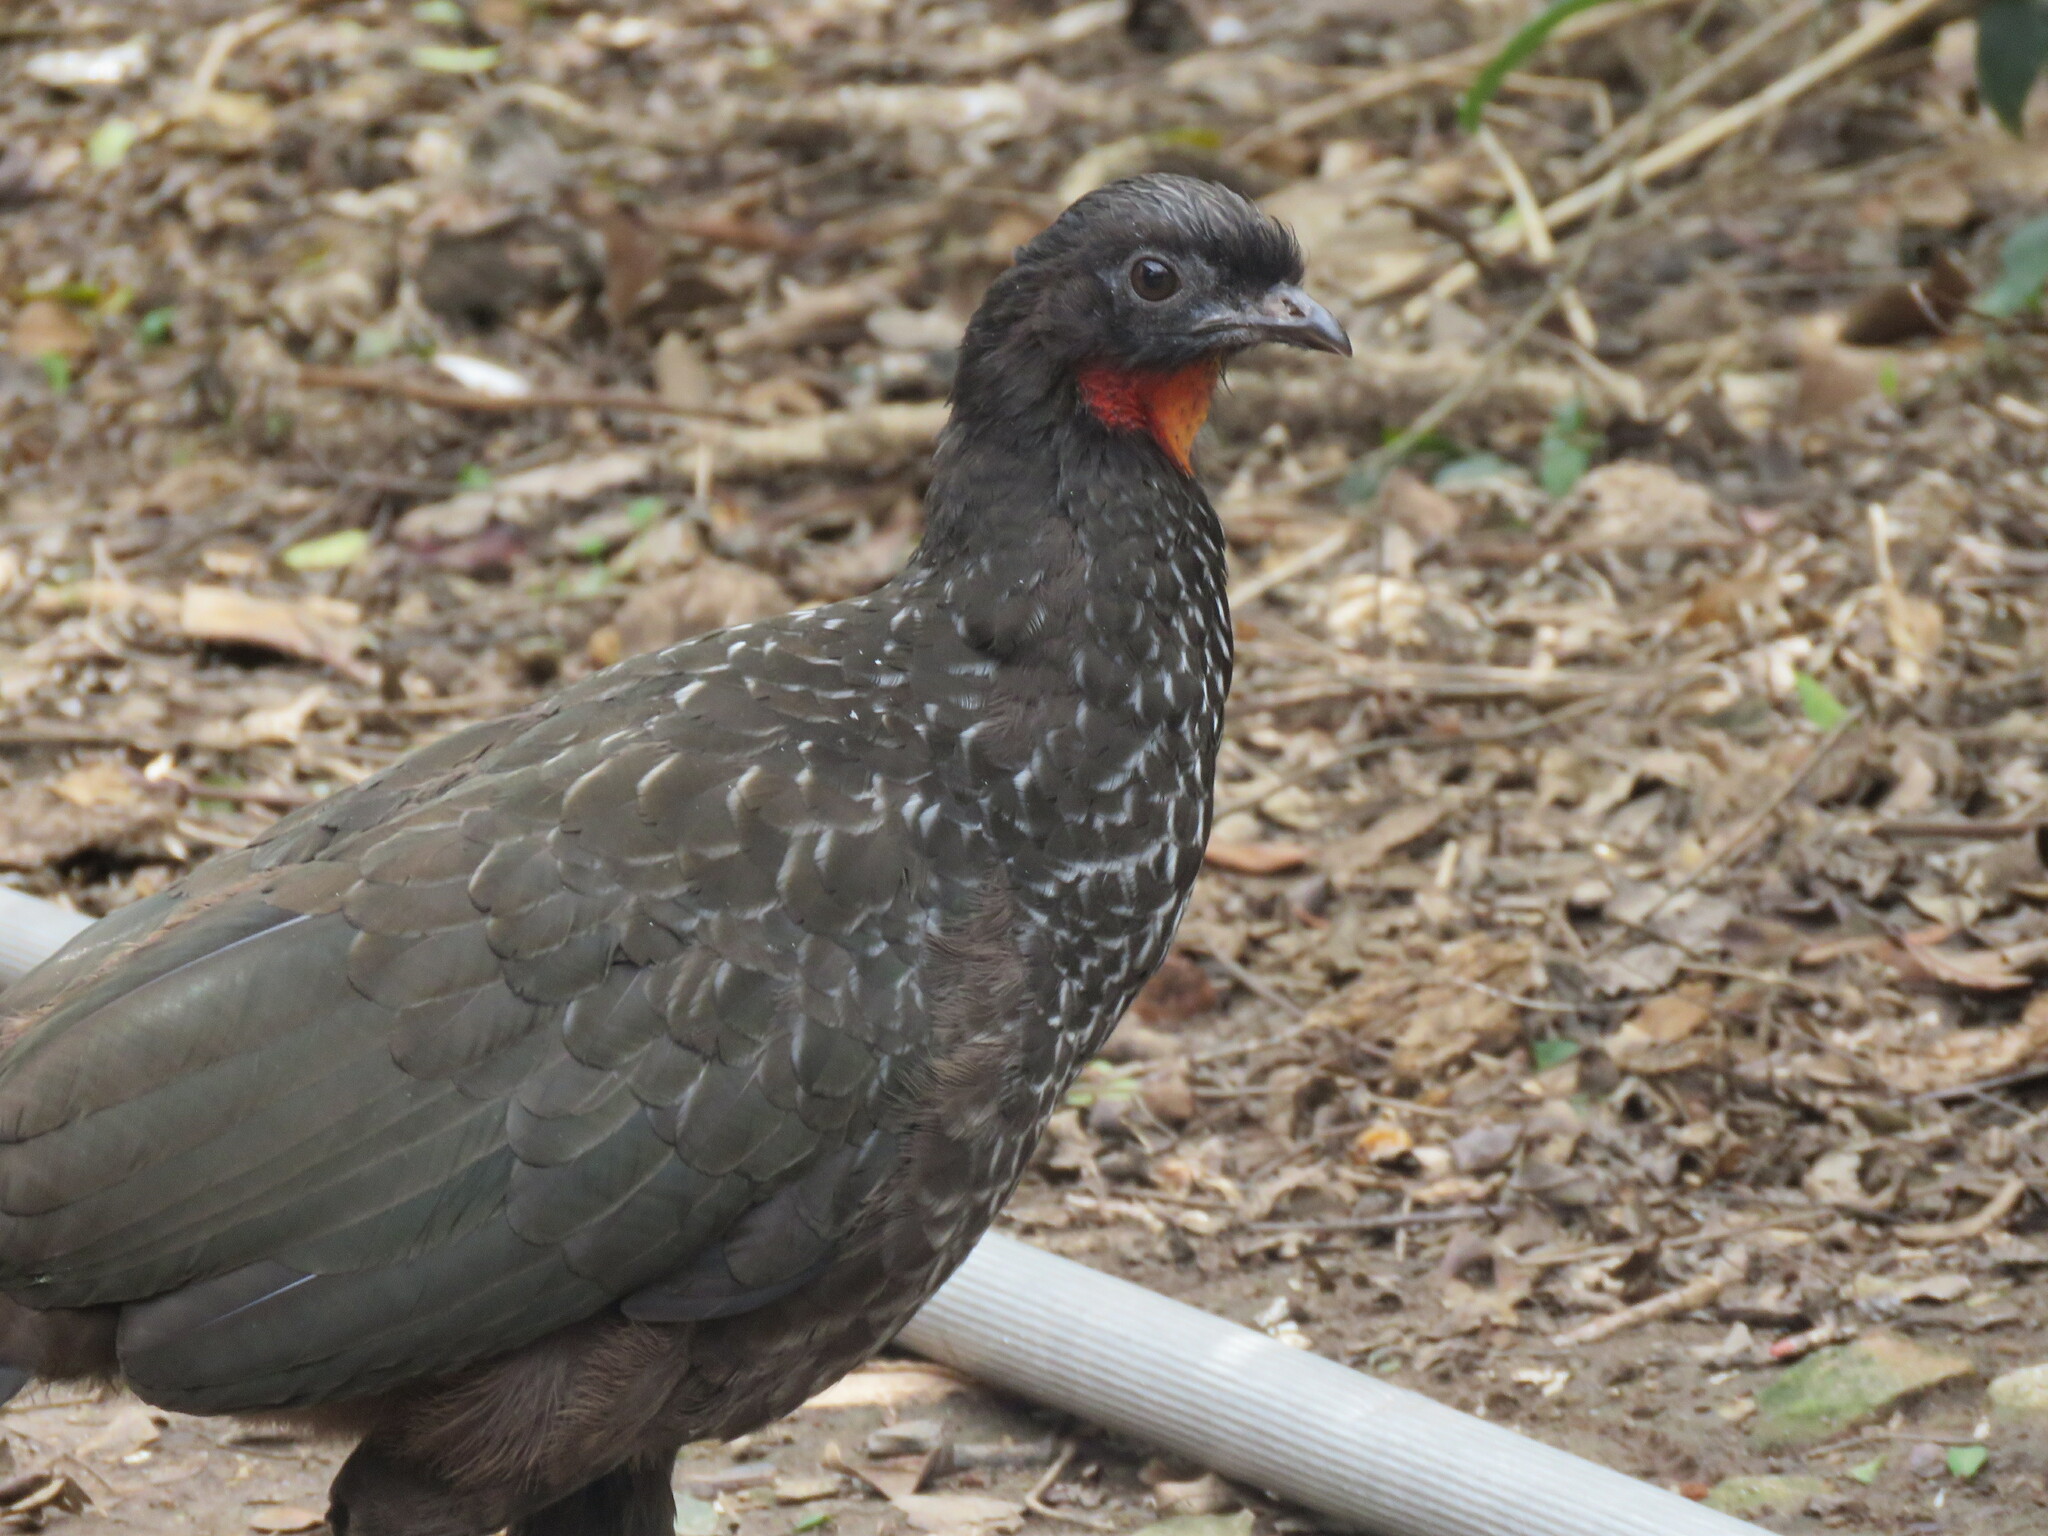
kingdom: Animalia
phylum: Chordata
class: Aves
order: Galliformes
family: Cracidae
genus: Penelope
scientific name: Penelope obscura
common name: Dusky-legged guan
